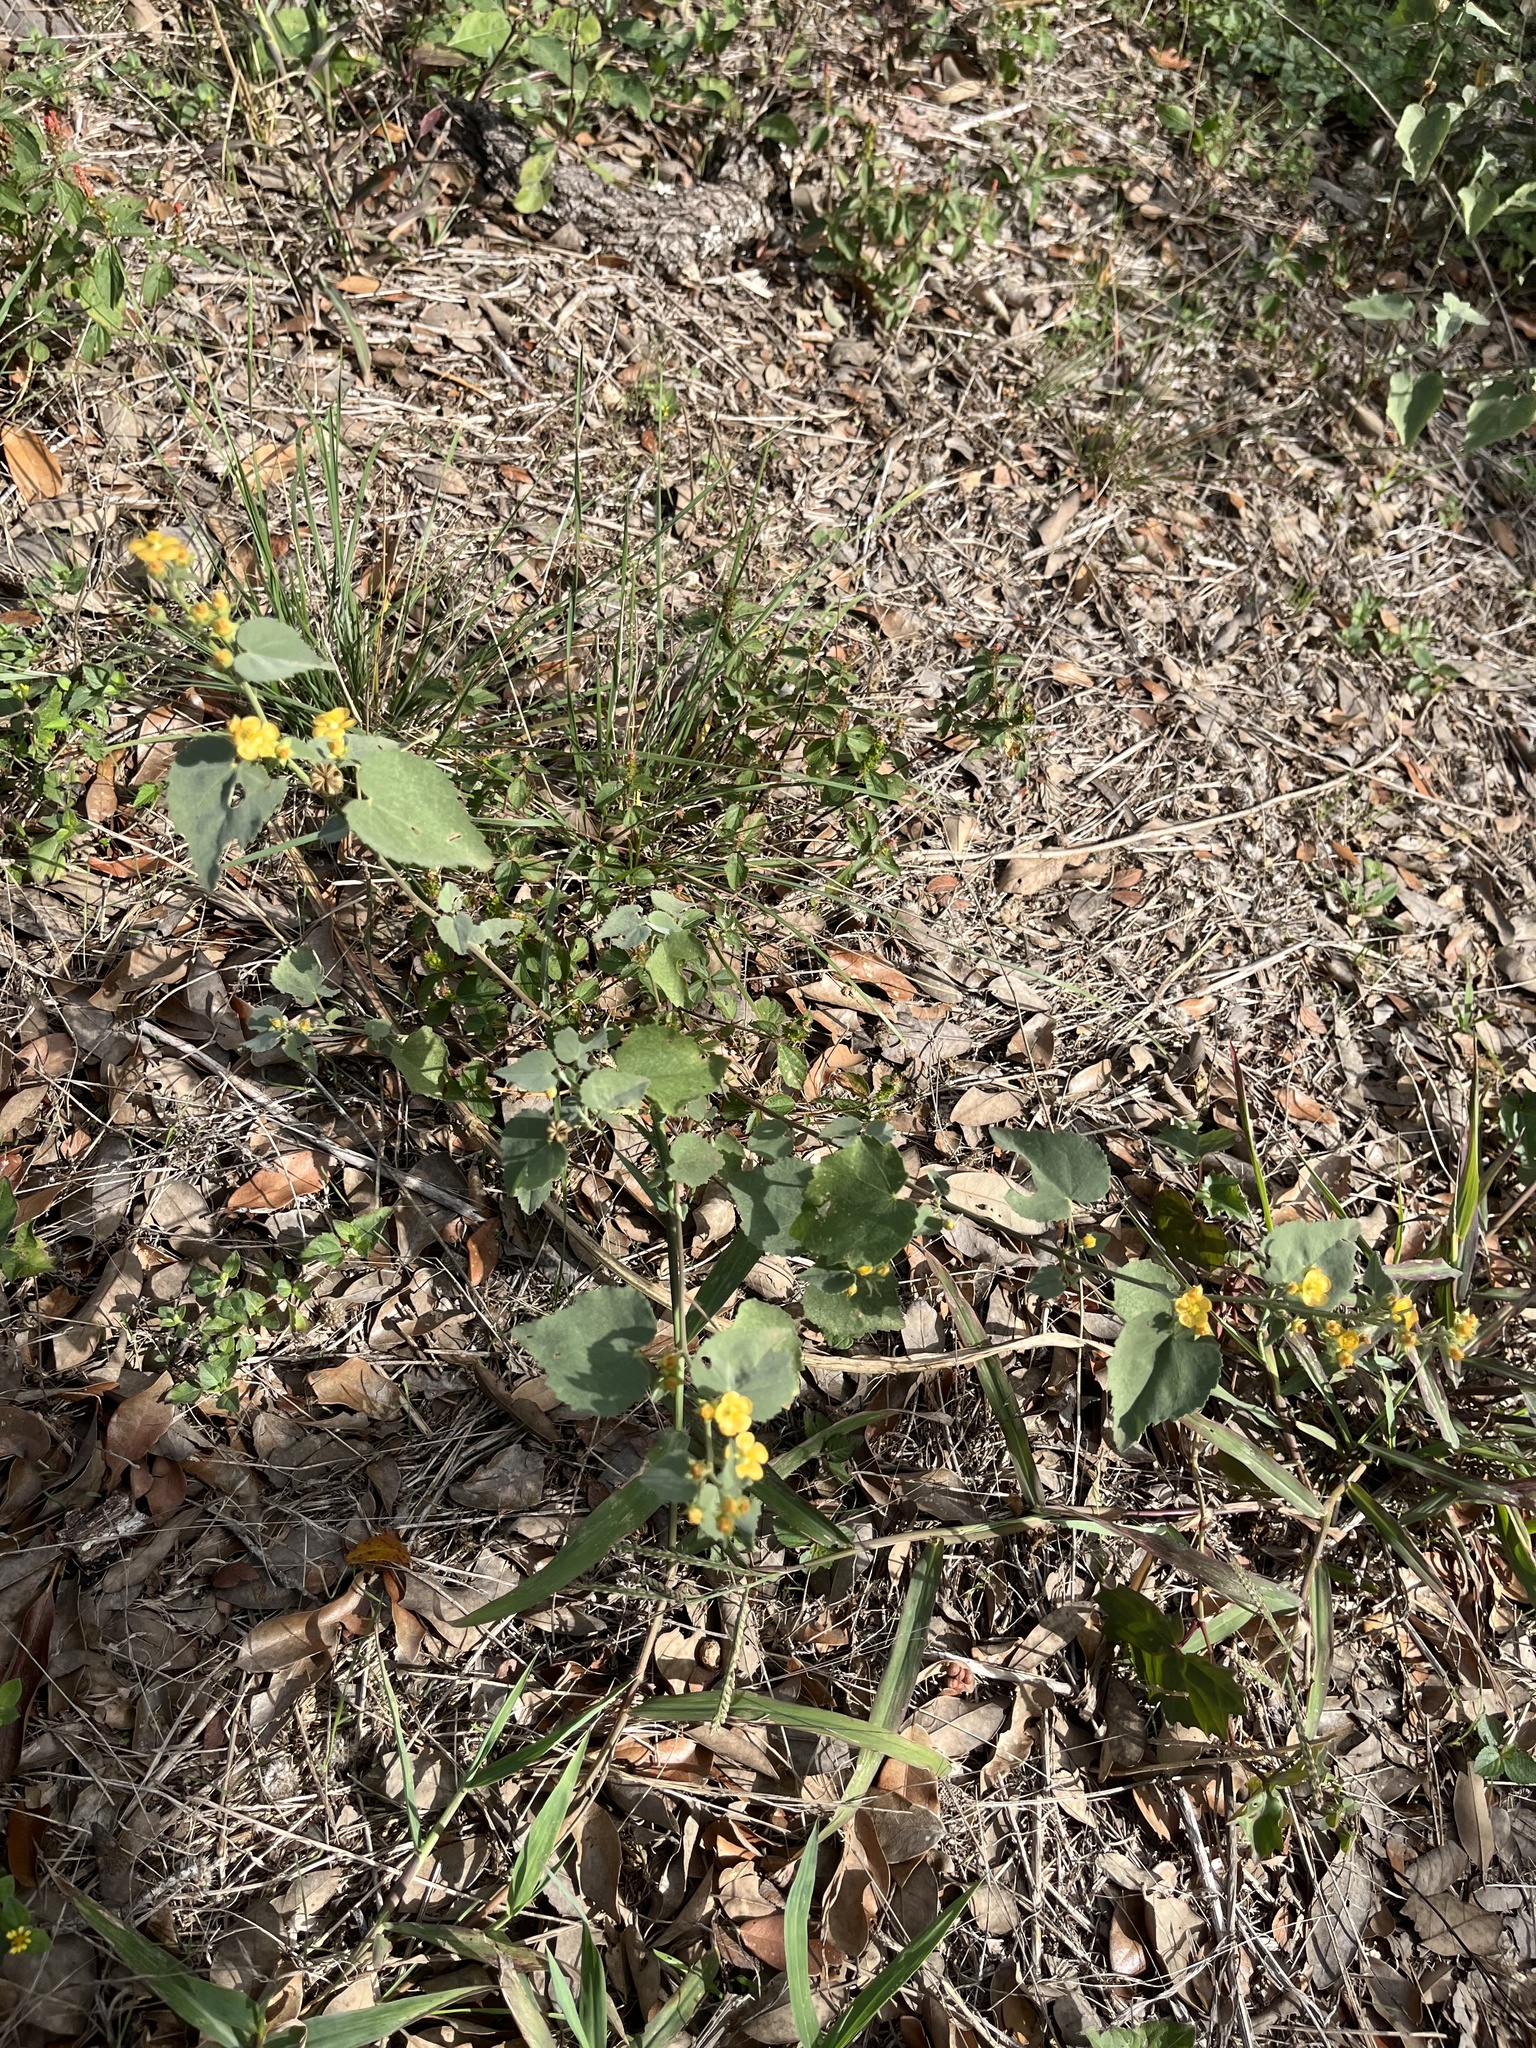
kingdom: Plantae
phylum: Tracheophyta
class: Magnoliopsida
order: Malvales
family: Malvaceae
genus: Abutilon
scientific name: Abutilon fruticosum
